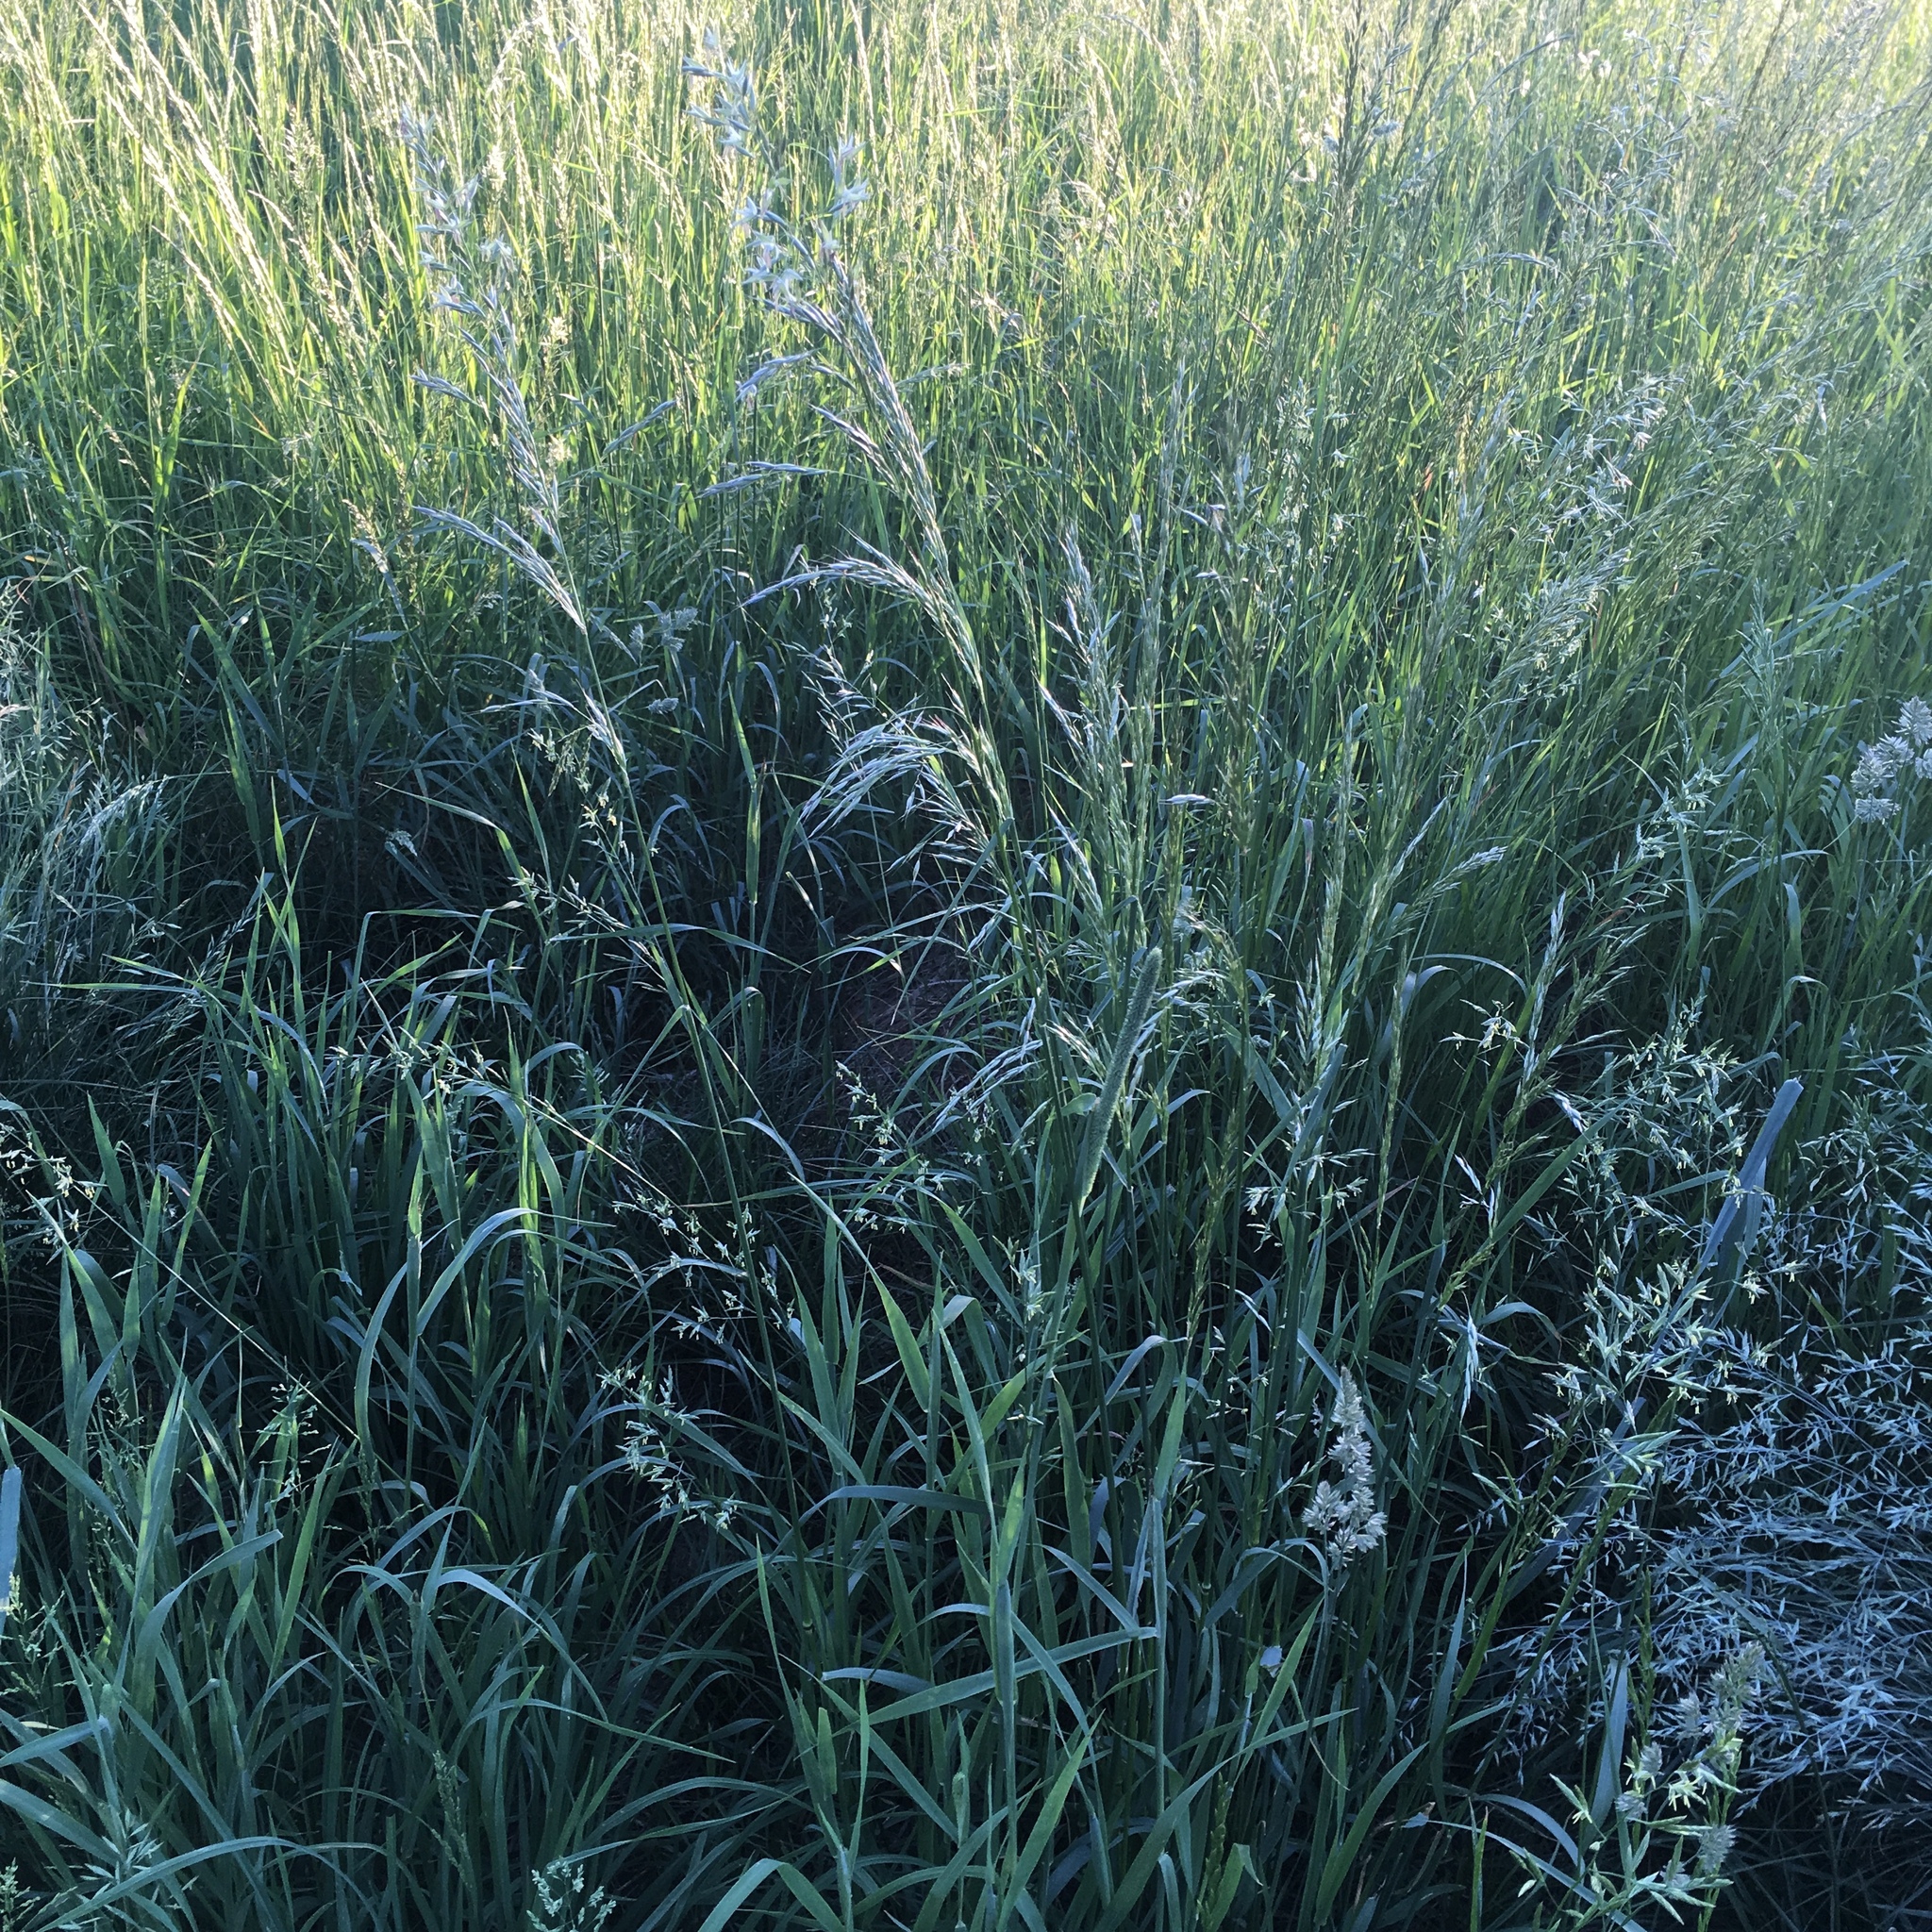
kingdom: Plantae
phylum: Tracheophyta
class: Liliopsida
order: Poales
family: Poaceae
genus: Arrhenatherum
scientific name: Arrhenatherum elatius
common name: Tall oatgrass
